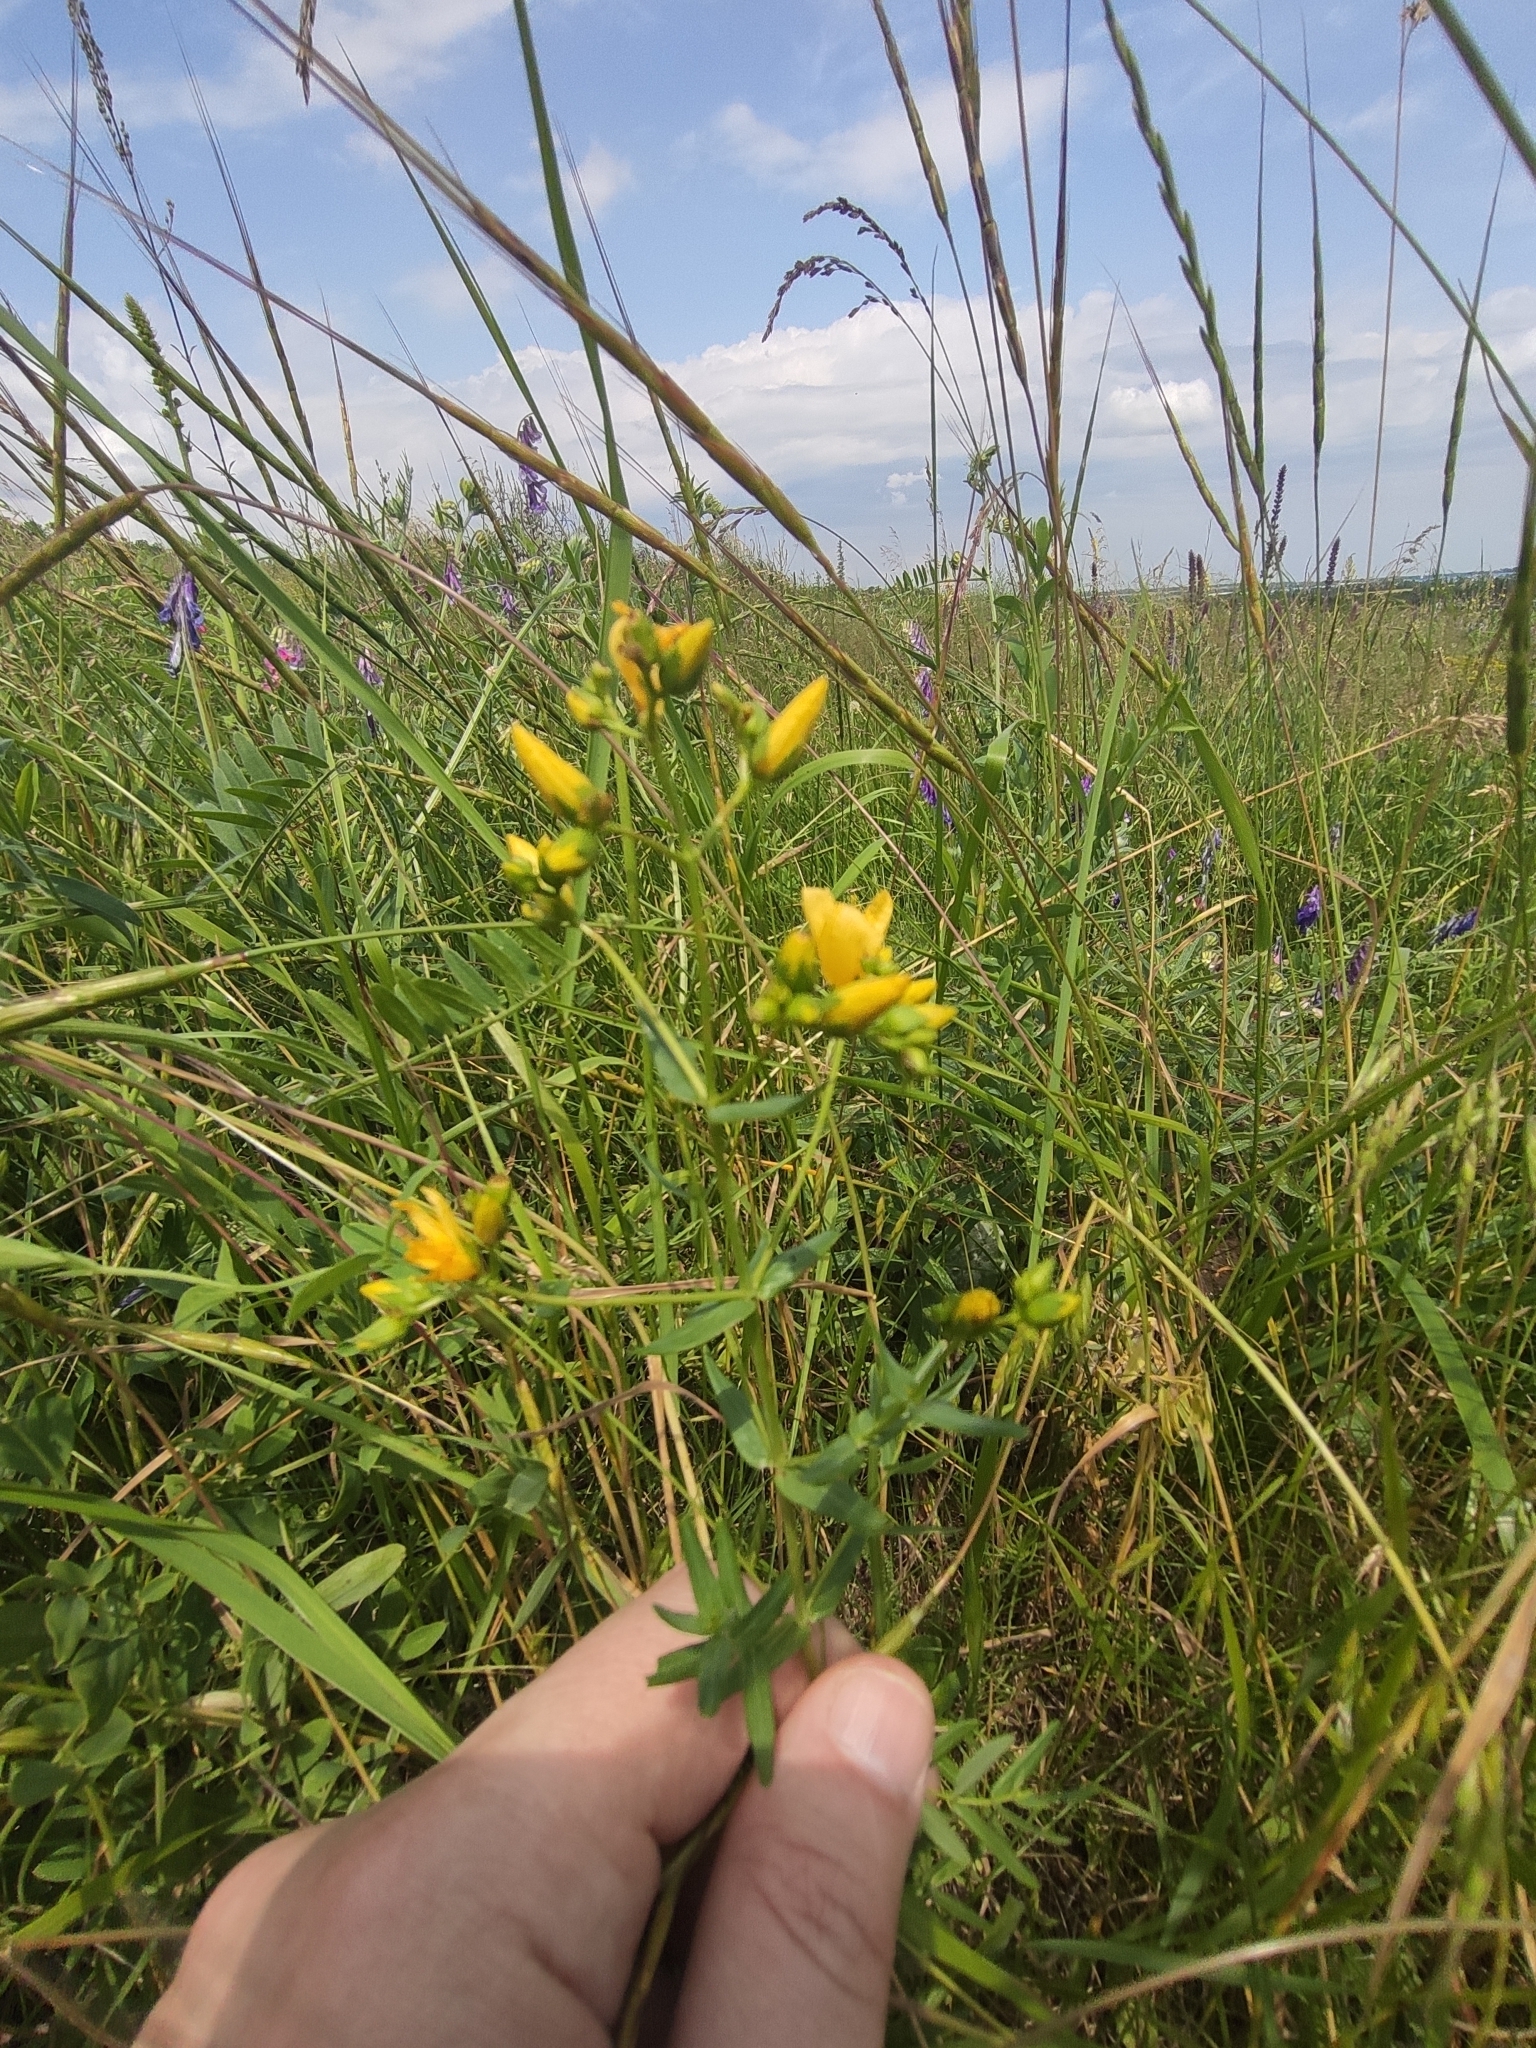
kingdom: Plantae
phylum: Tracheophyta
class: Magnoliopsida
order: Malpighiales
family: Hypericaceae
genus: Hypericum
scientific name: Hypericum elegans
